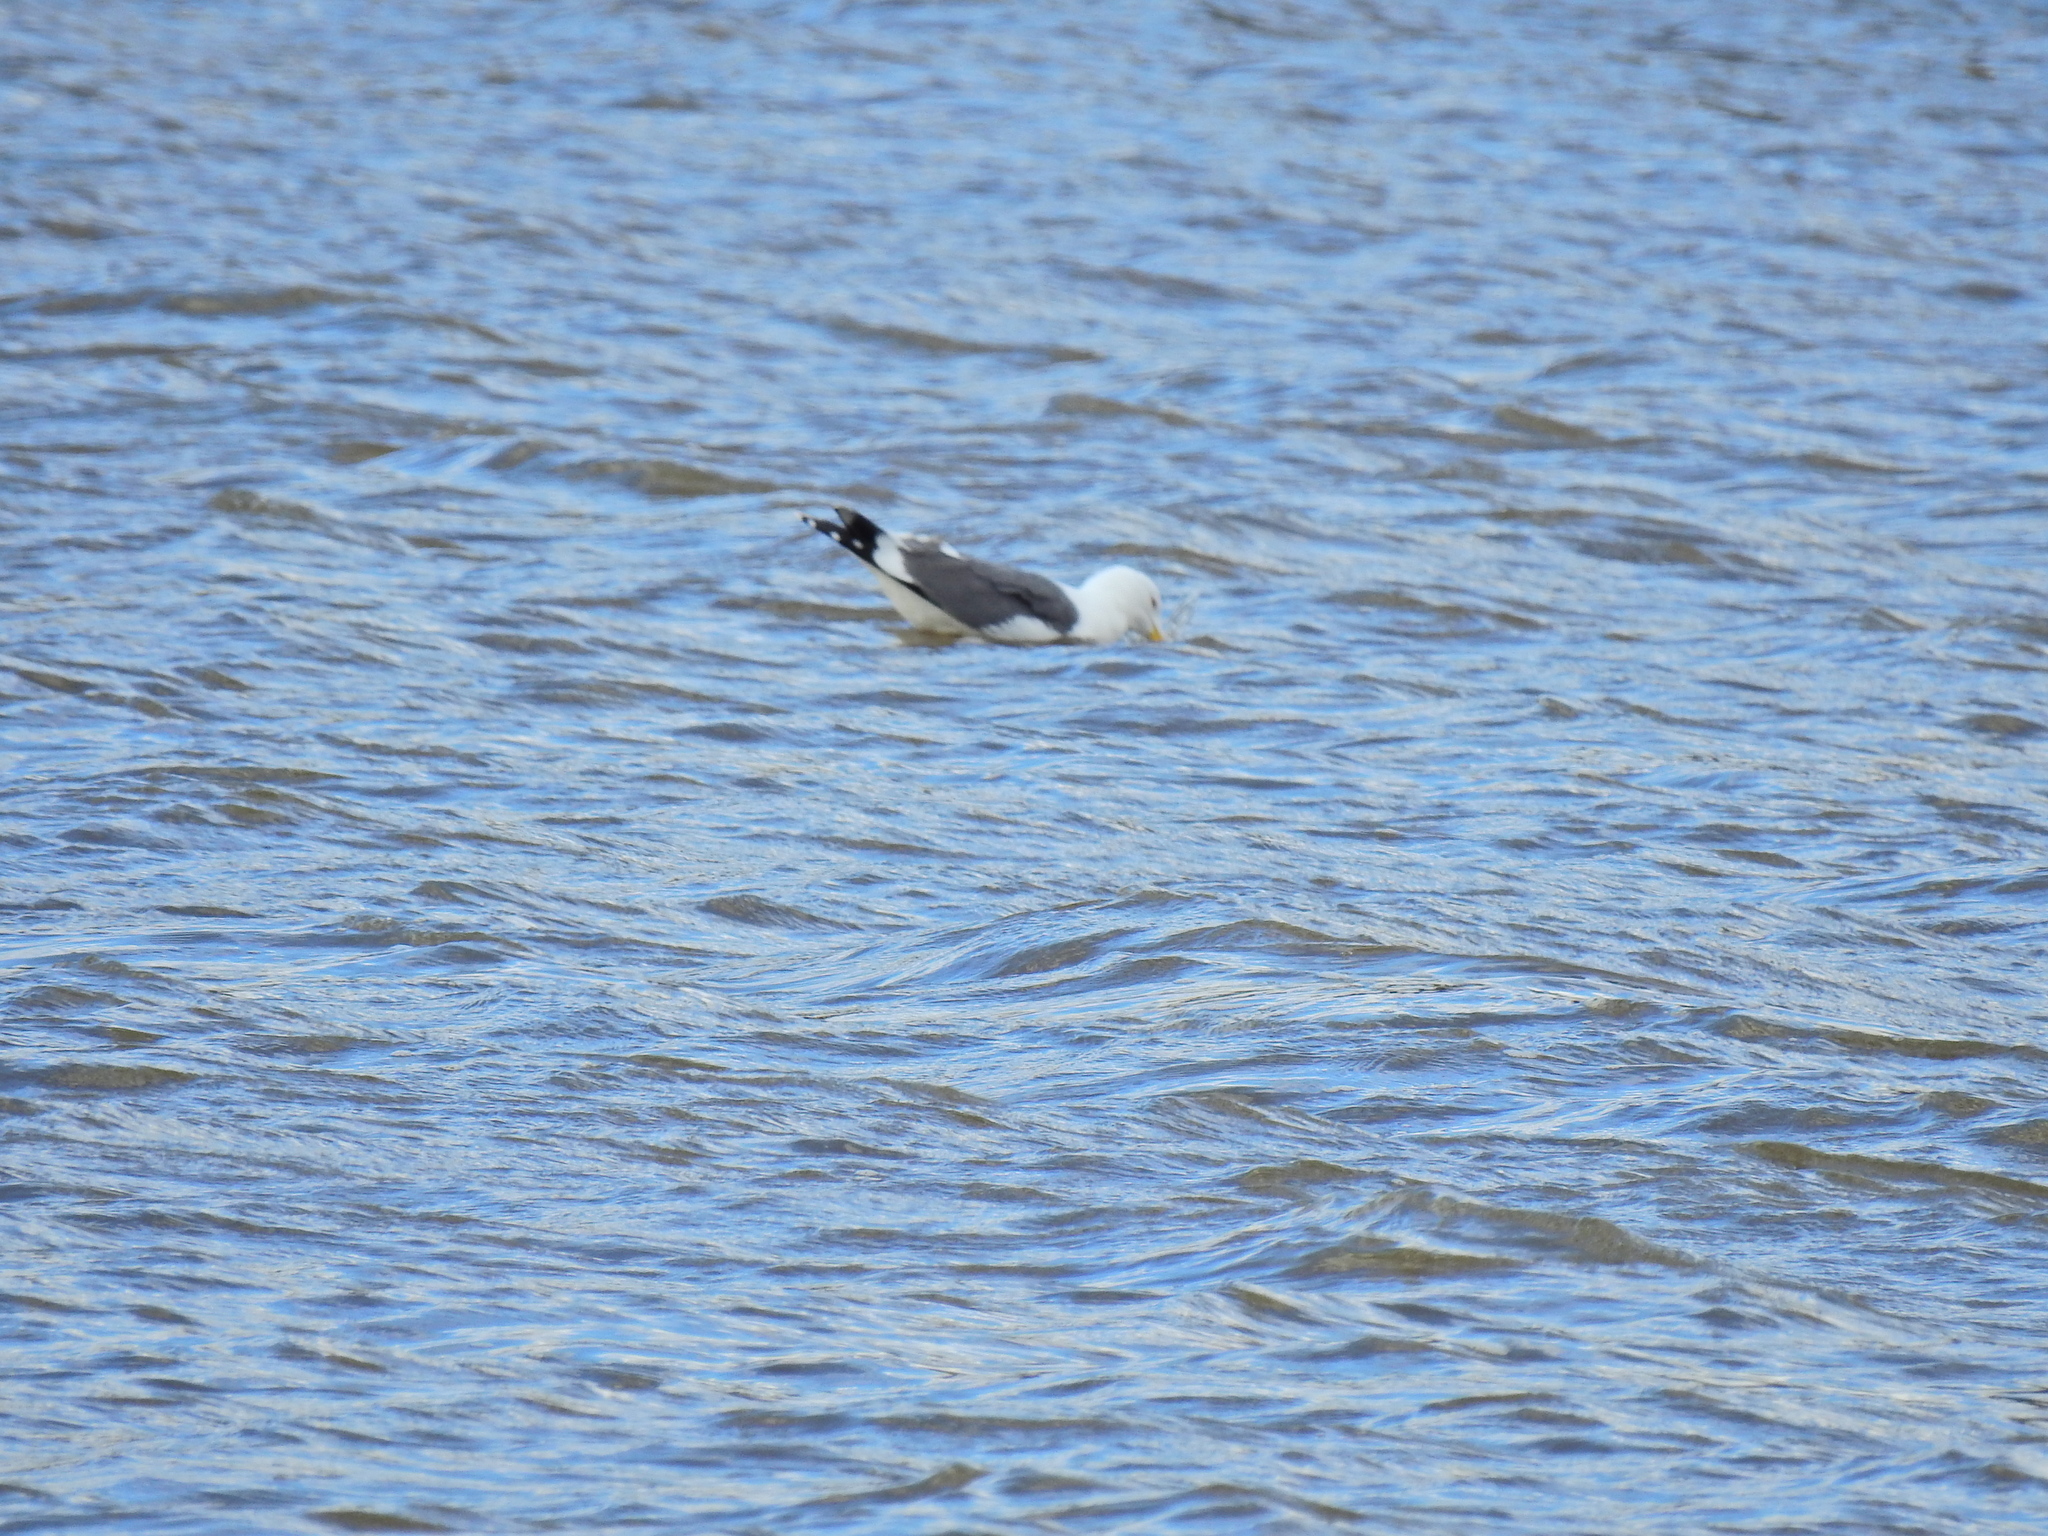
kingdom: Animalia
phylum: Chordata
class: Aves
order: Charadriiformes
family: Laridae
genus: Larus
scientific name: Larus fuscus
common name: Lesser black-backed gull
